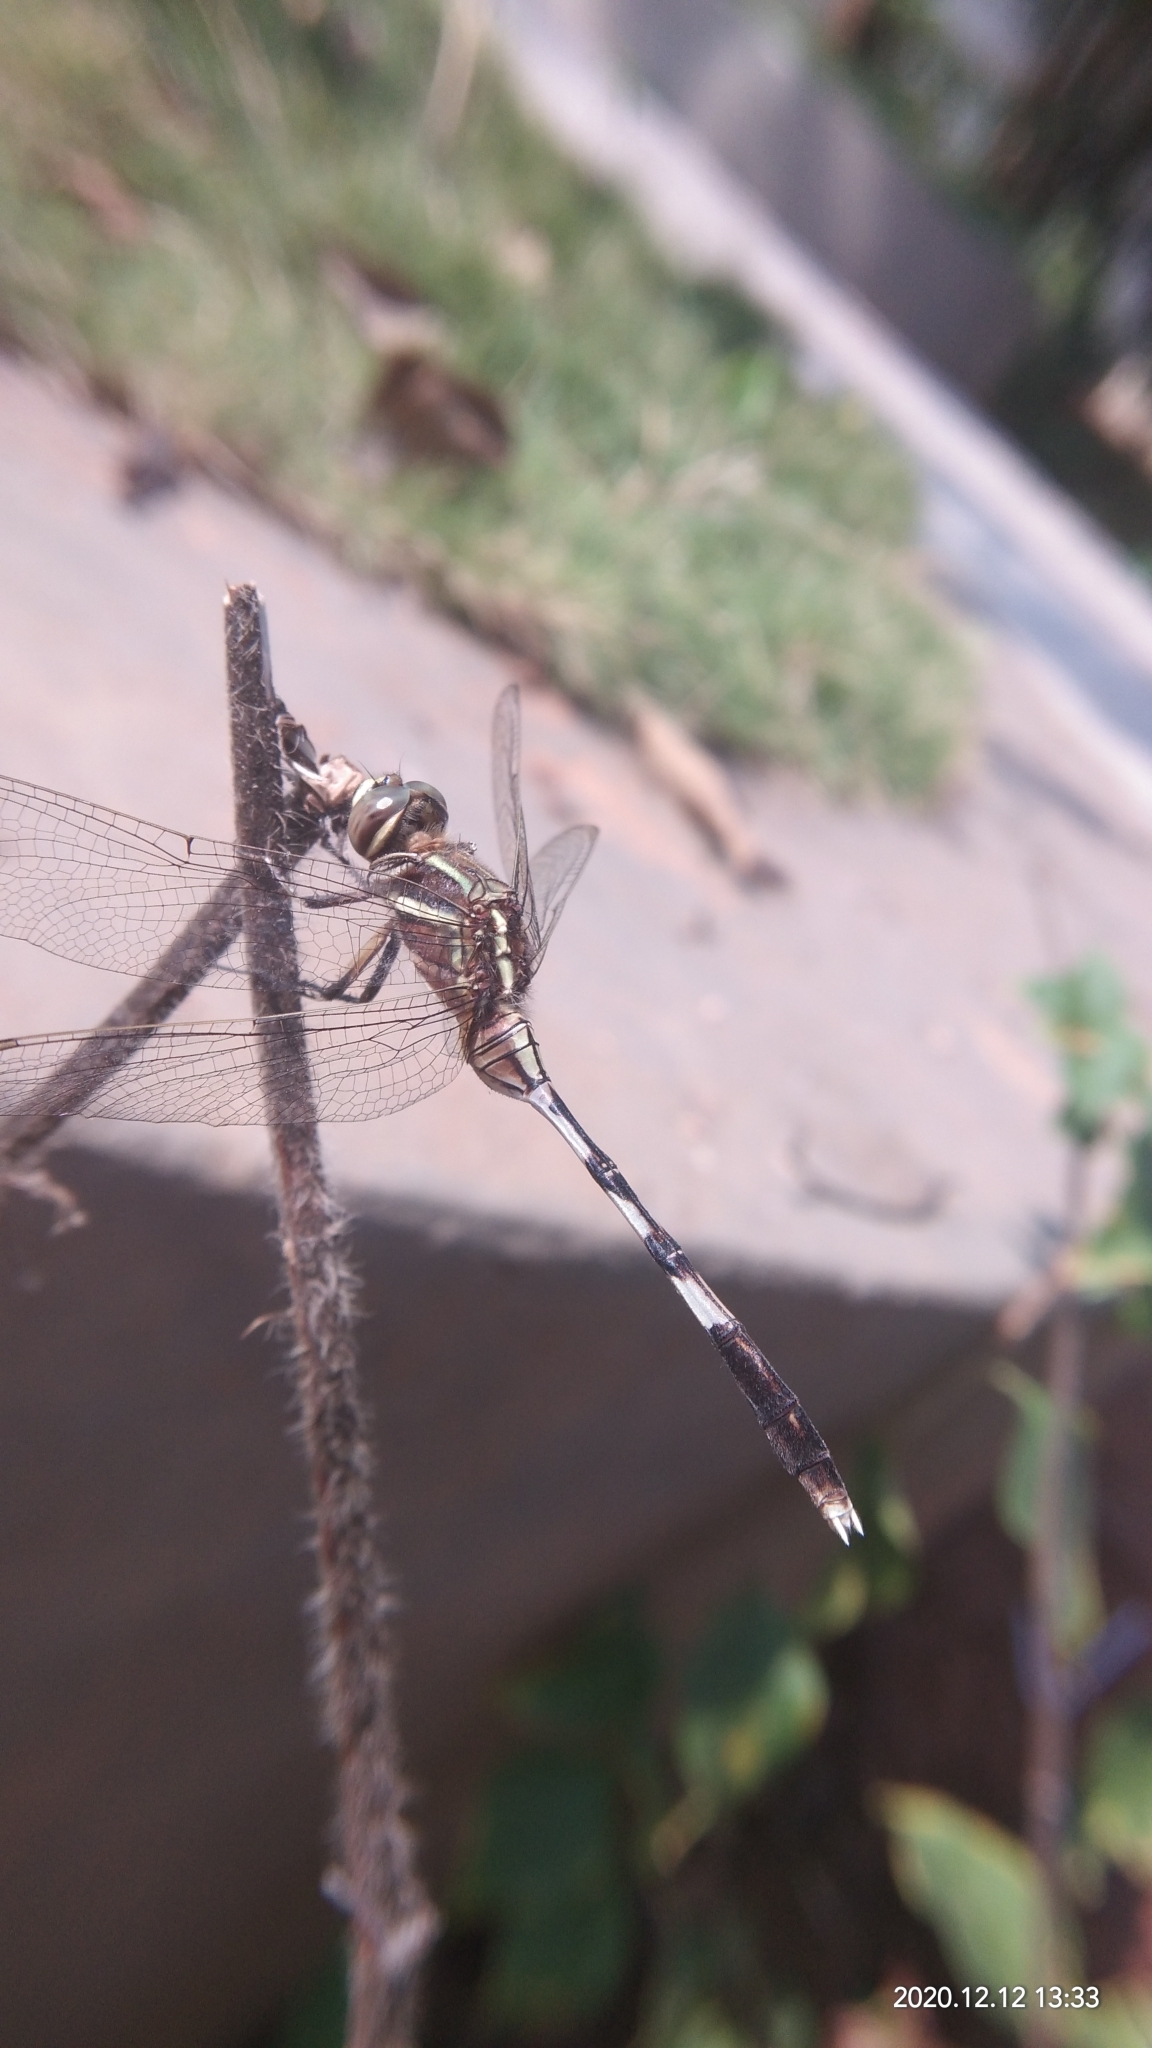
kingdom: Animalia
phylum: Arthropoda
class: Insecta
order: Odonata
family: Libellulidae
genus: Orthetrum
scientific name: Orthetrum sabina
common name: Slender skimmer
